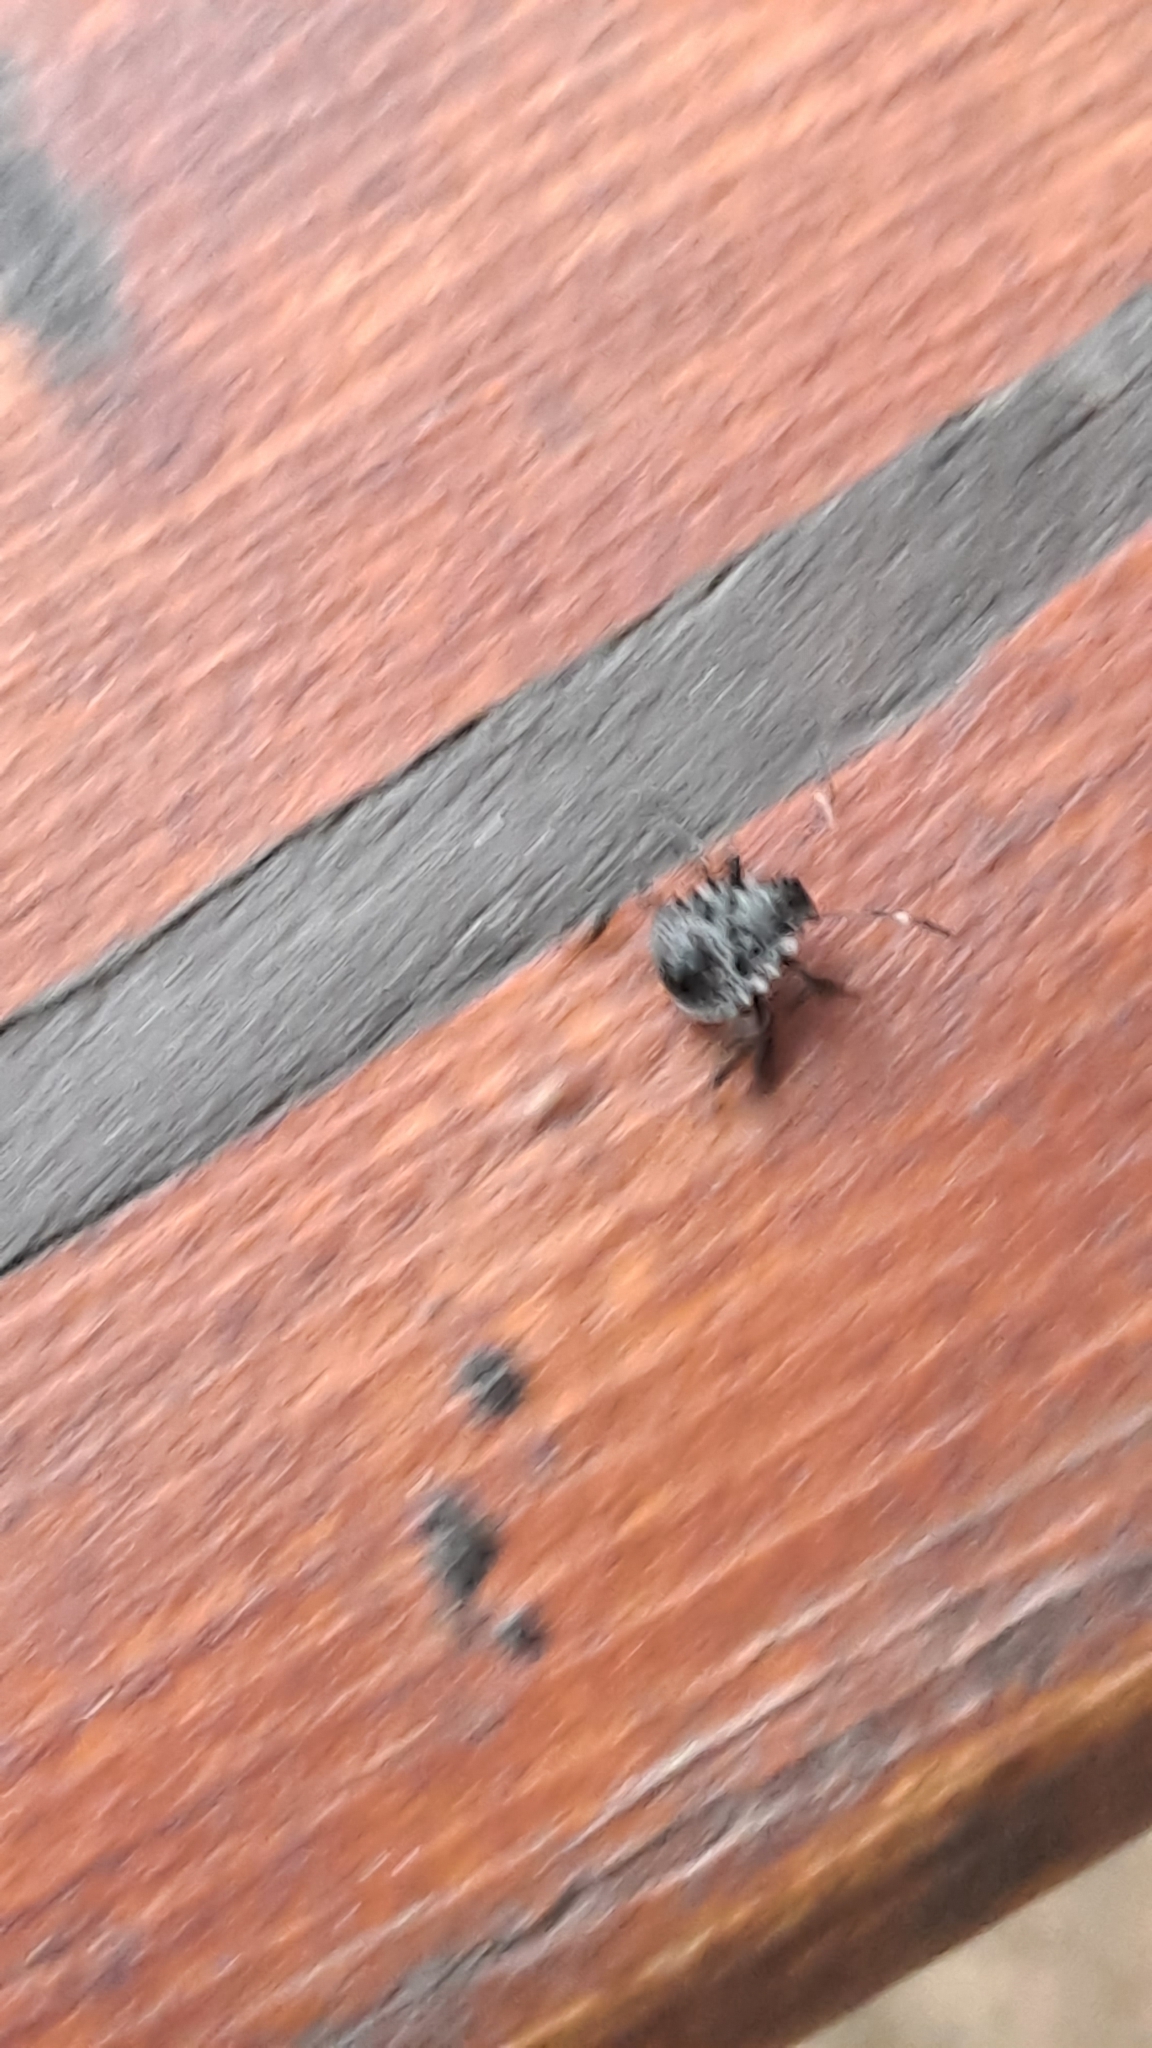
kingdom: Animalia
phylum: Arthropoda
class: Insecta
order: Hemiptera
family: Pentatomidae
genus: Halyomorpha
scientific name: Halyomorpha halys
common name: Brown marmorated stink bug
